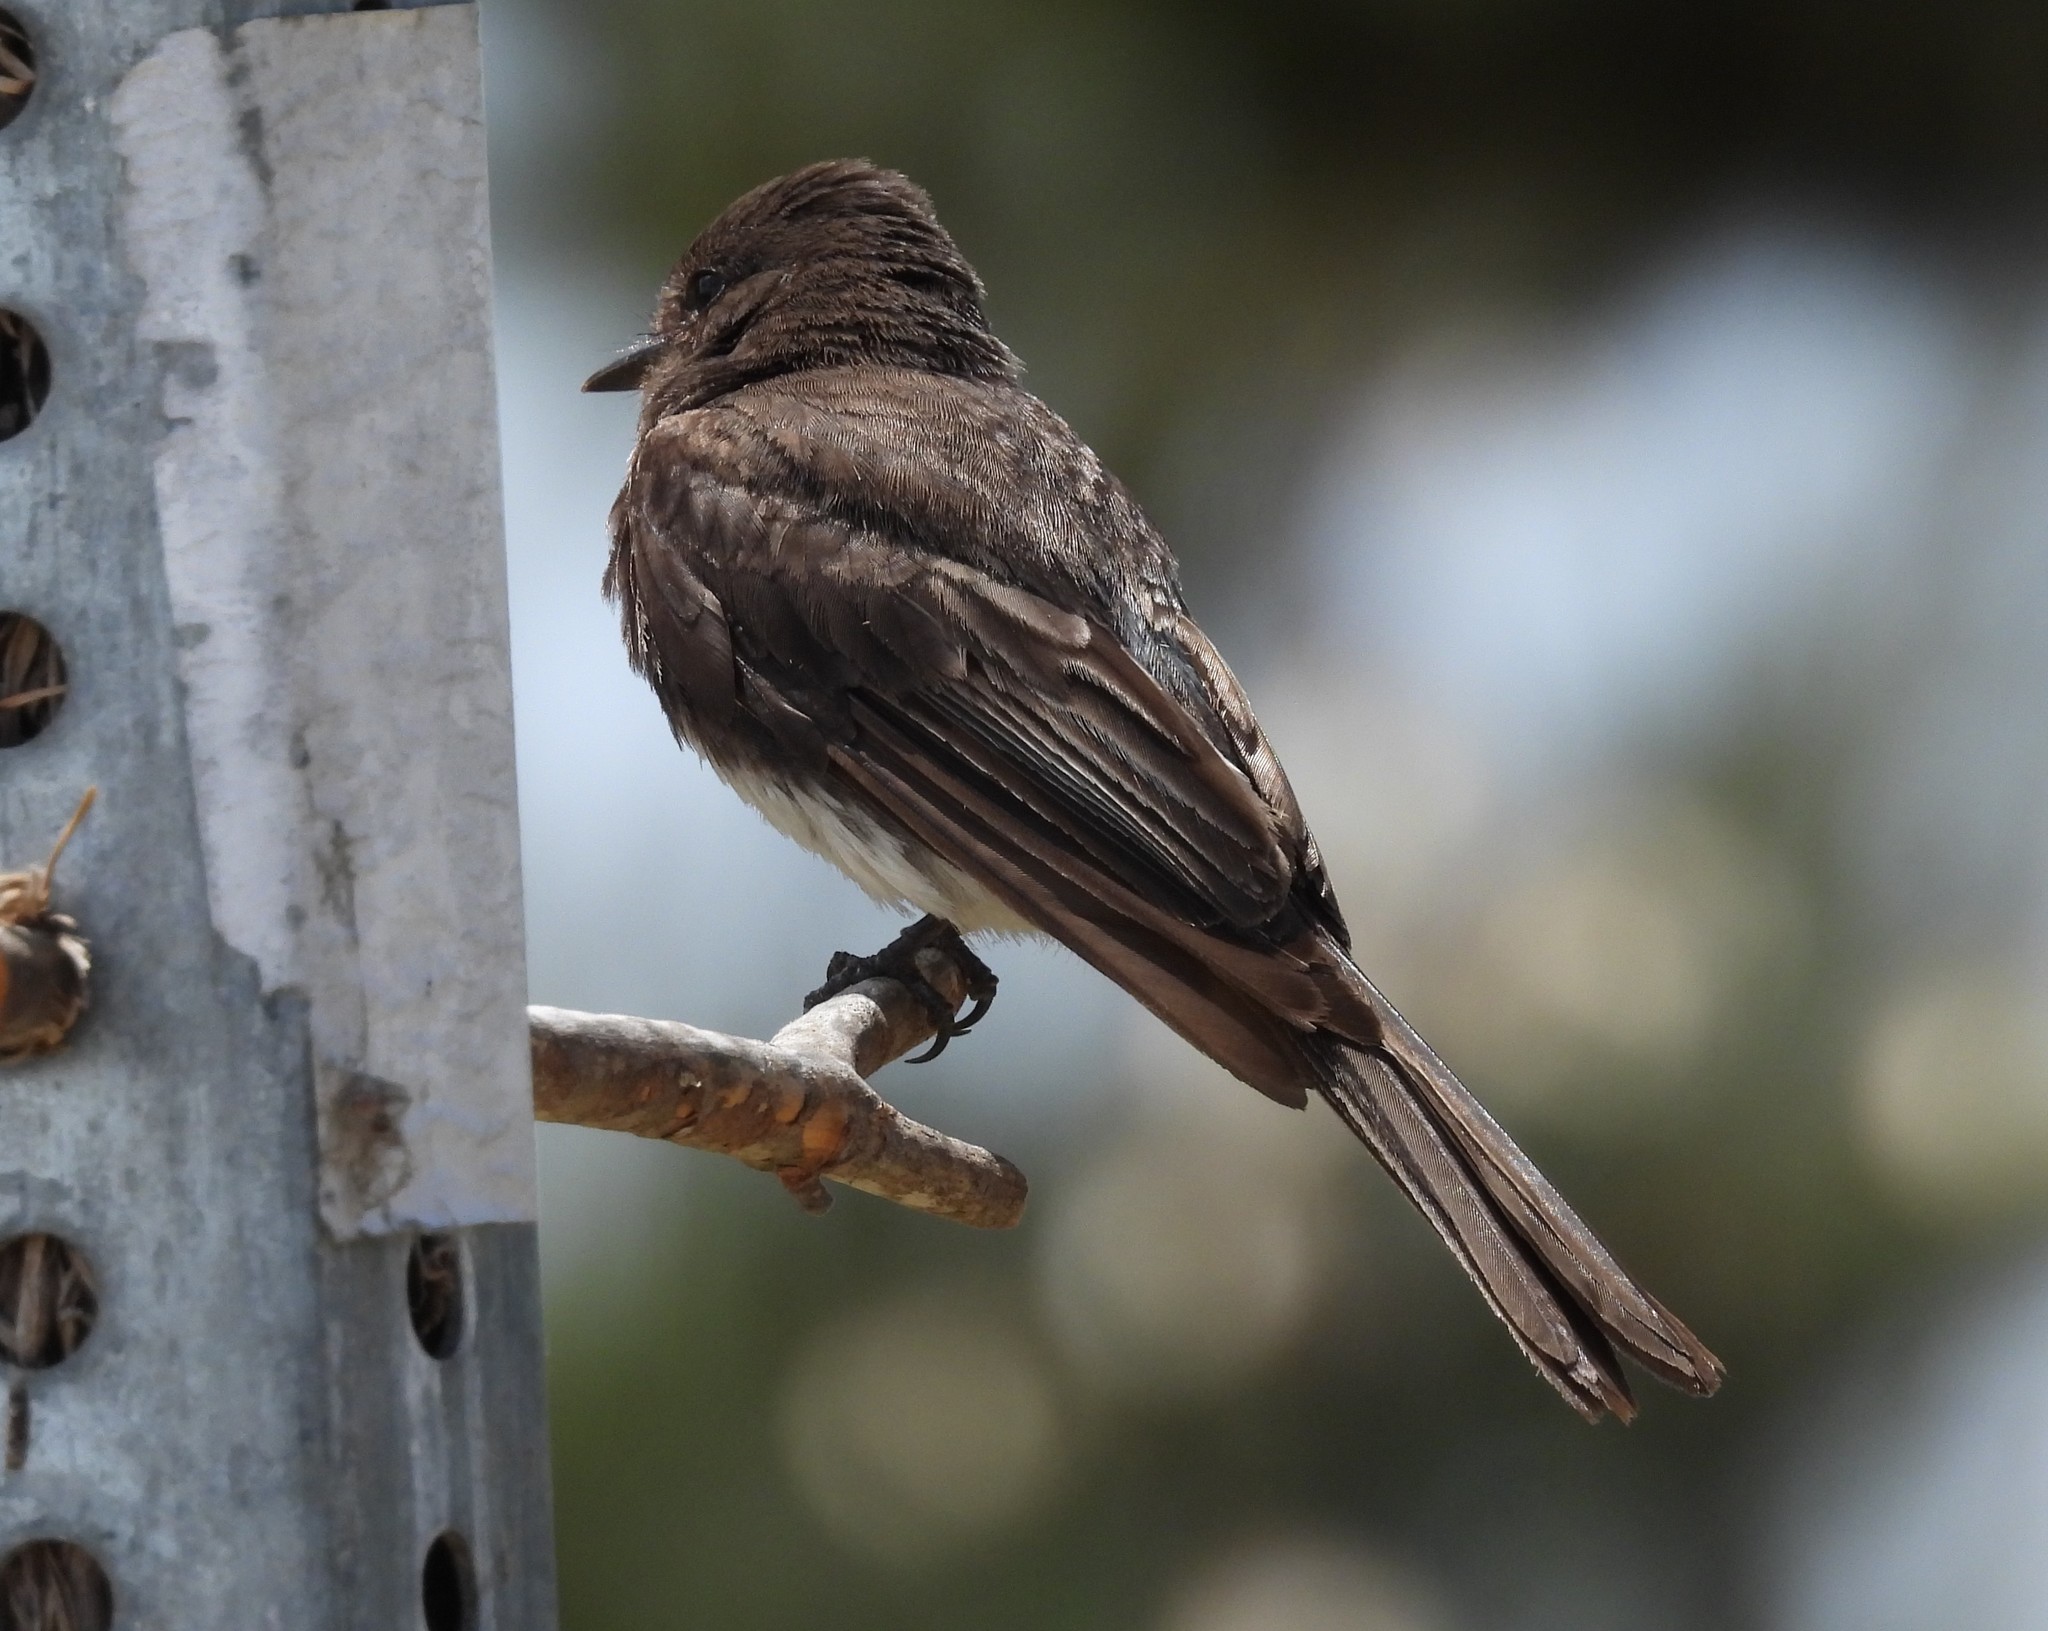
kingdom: Animalia
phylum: Chordata
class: Aves
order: Passeriformes
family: Tyrannidae
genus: Sayornis
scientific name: Sayornis nigricans
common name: Black phoebe
